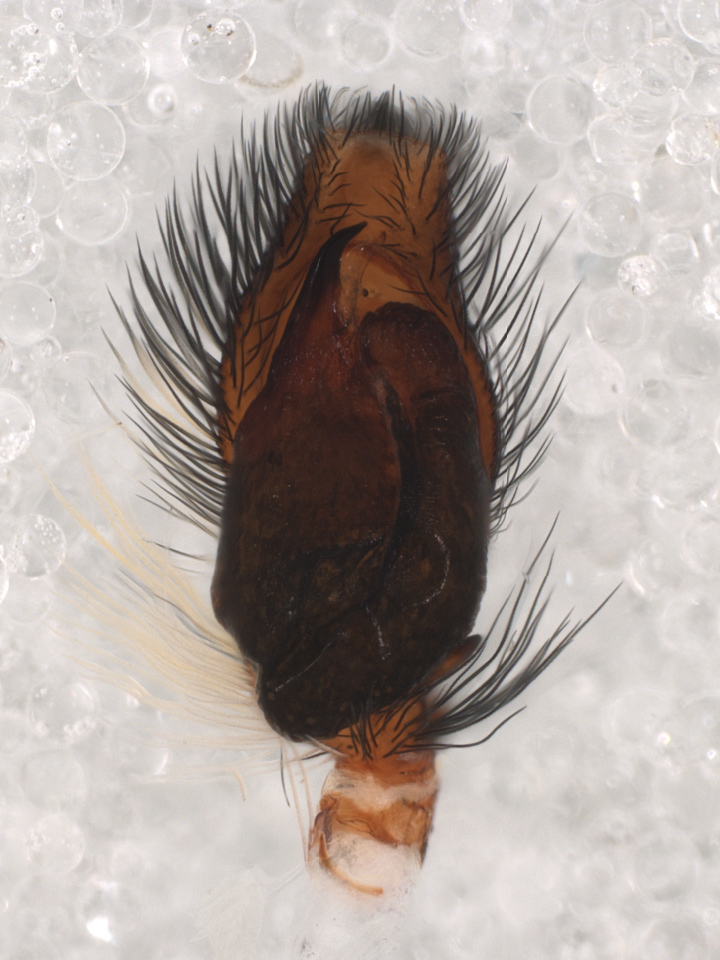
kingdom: Animalia
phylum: Arthropoda
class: Arachnida
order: Araneae
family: Salticidae
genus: Menemerus
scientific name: Menemerus bivittatus
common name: Gray wall jumper
